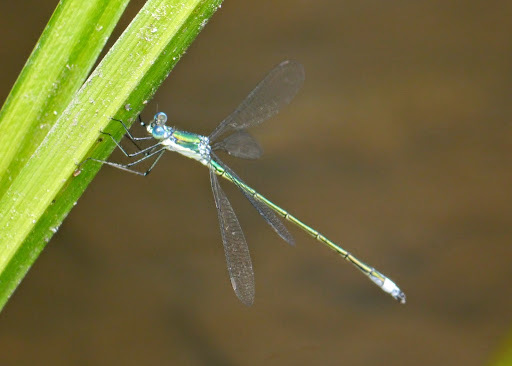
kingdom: Animalia
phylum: Arthropoda
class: Insecta
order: Odonata
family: Lestidae
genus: Lestes
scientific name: Lestes dryas
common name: Scarce emerald damselfly
